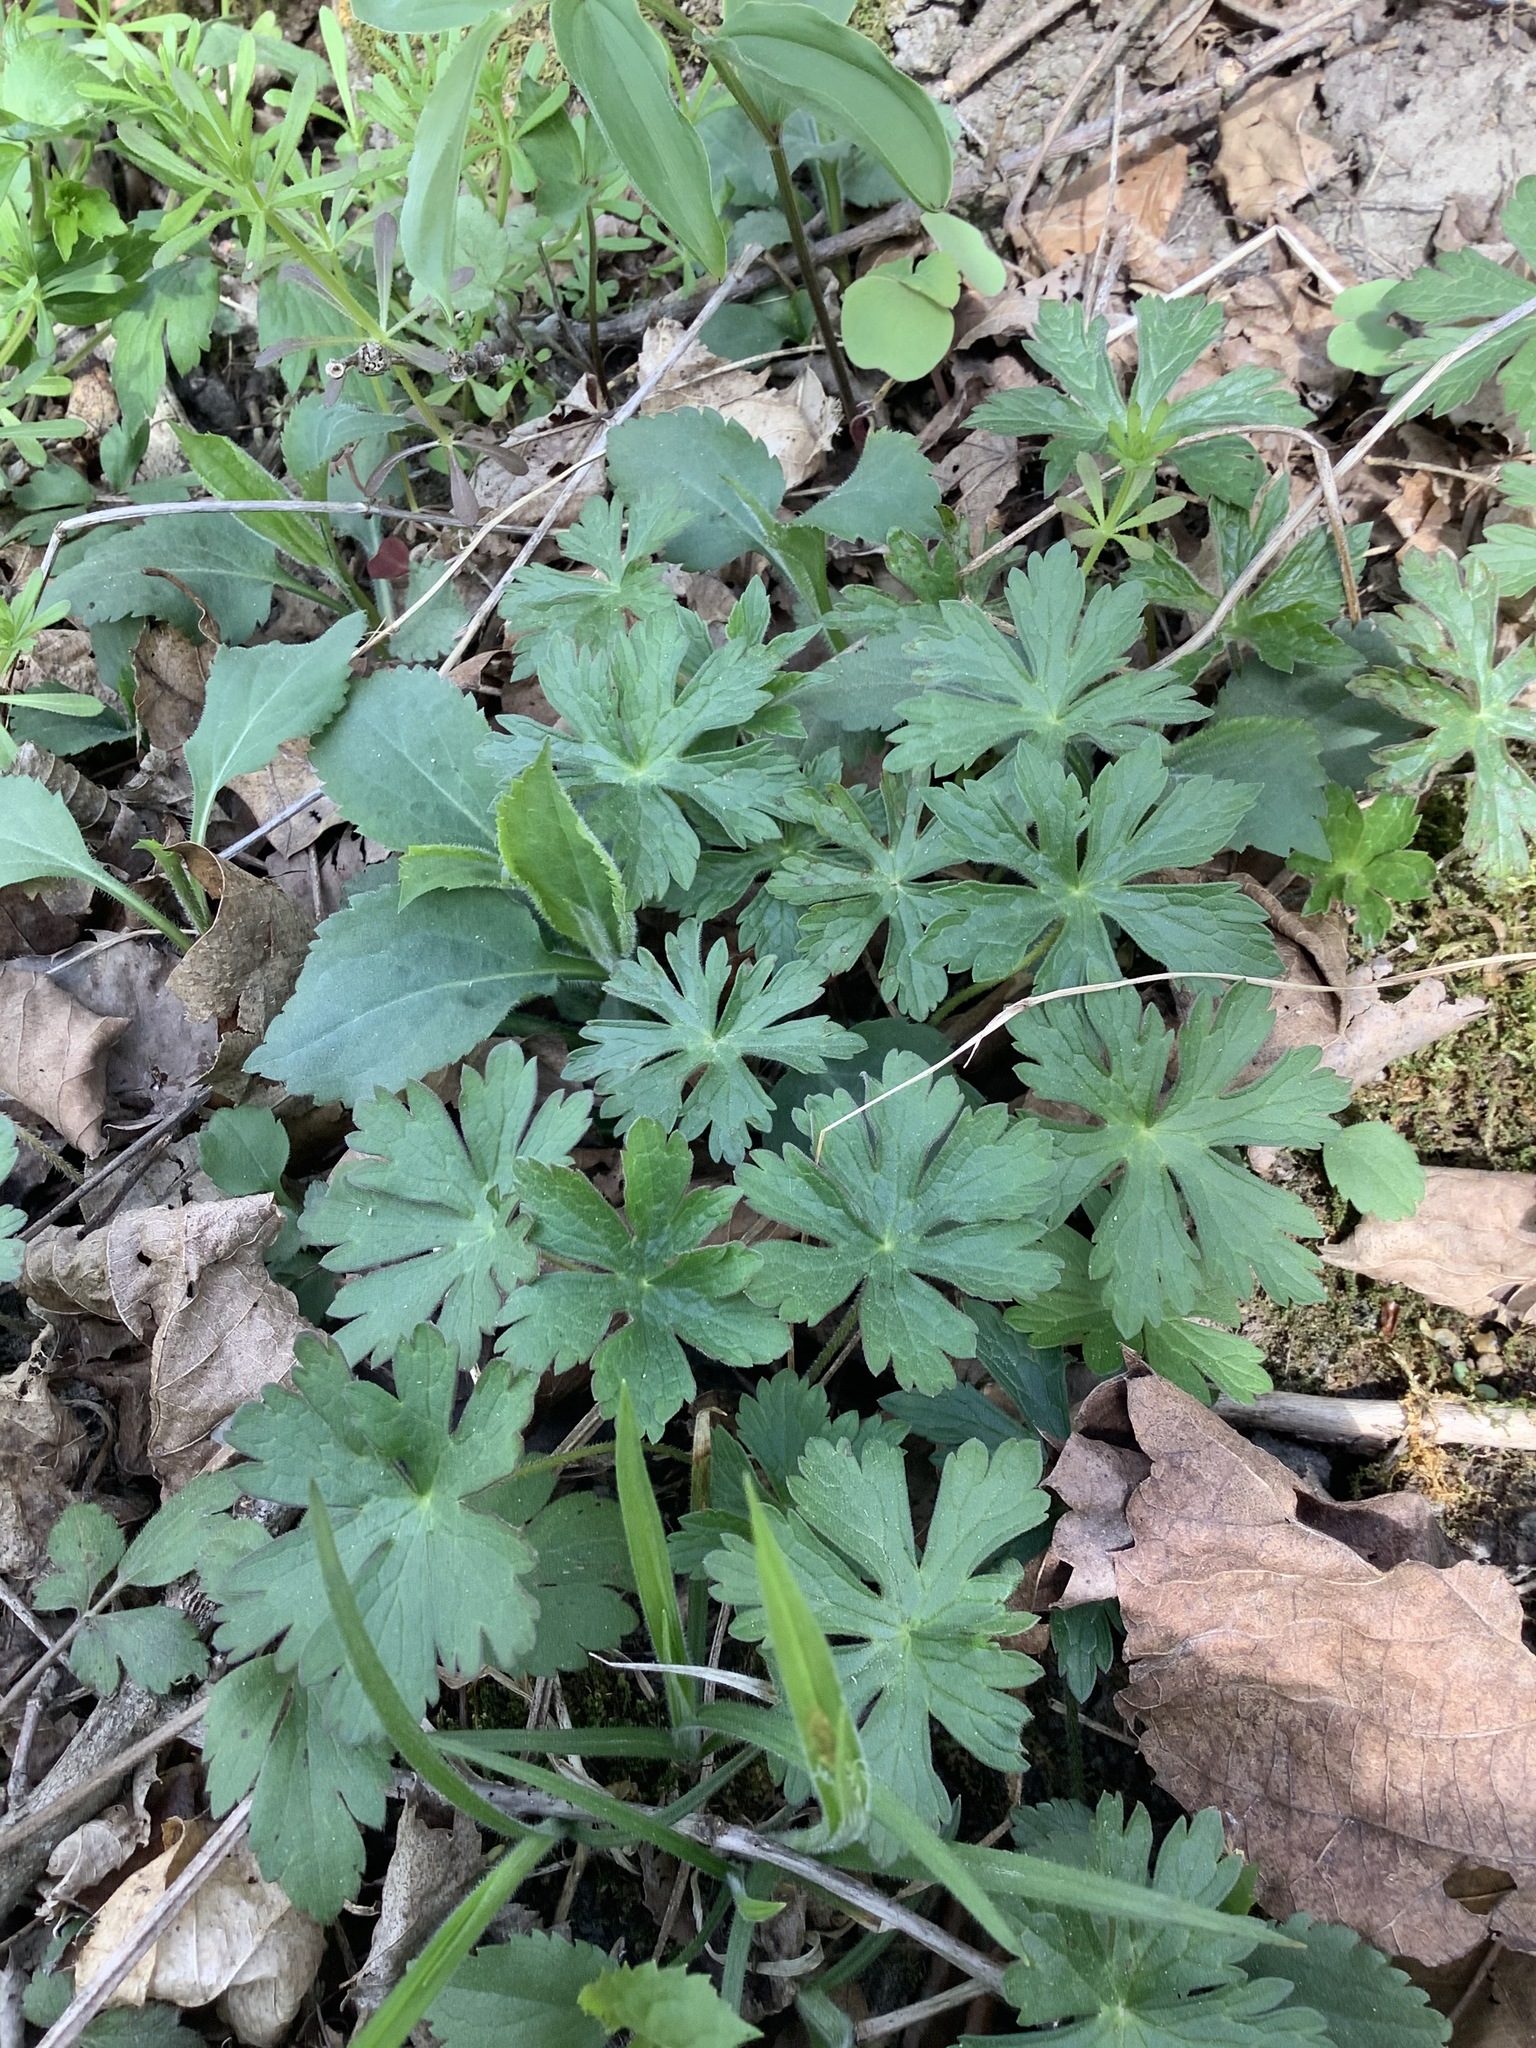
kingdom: Plantae
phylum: Tracheophyta
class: Magnoliopsida
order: Geraniales
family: Geraniaceae
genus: Geranium
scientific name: Geranium maculatum
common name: Spotted geranium
